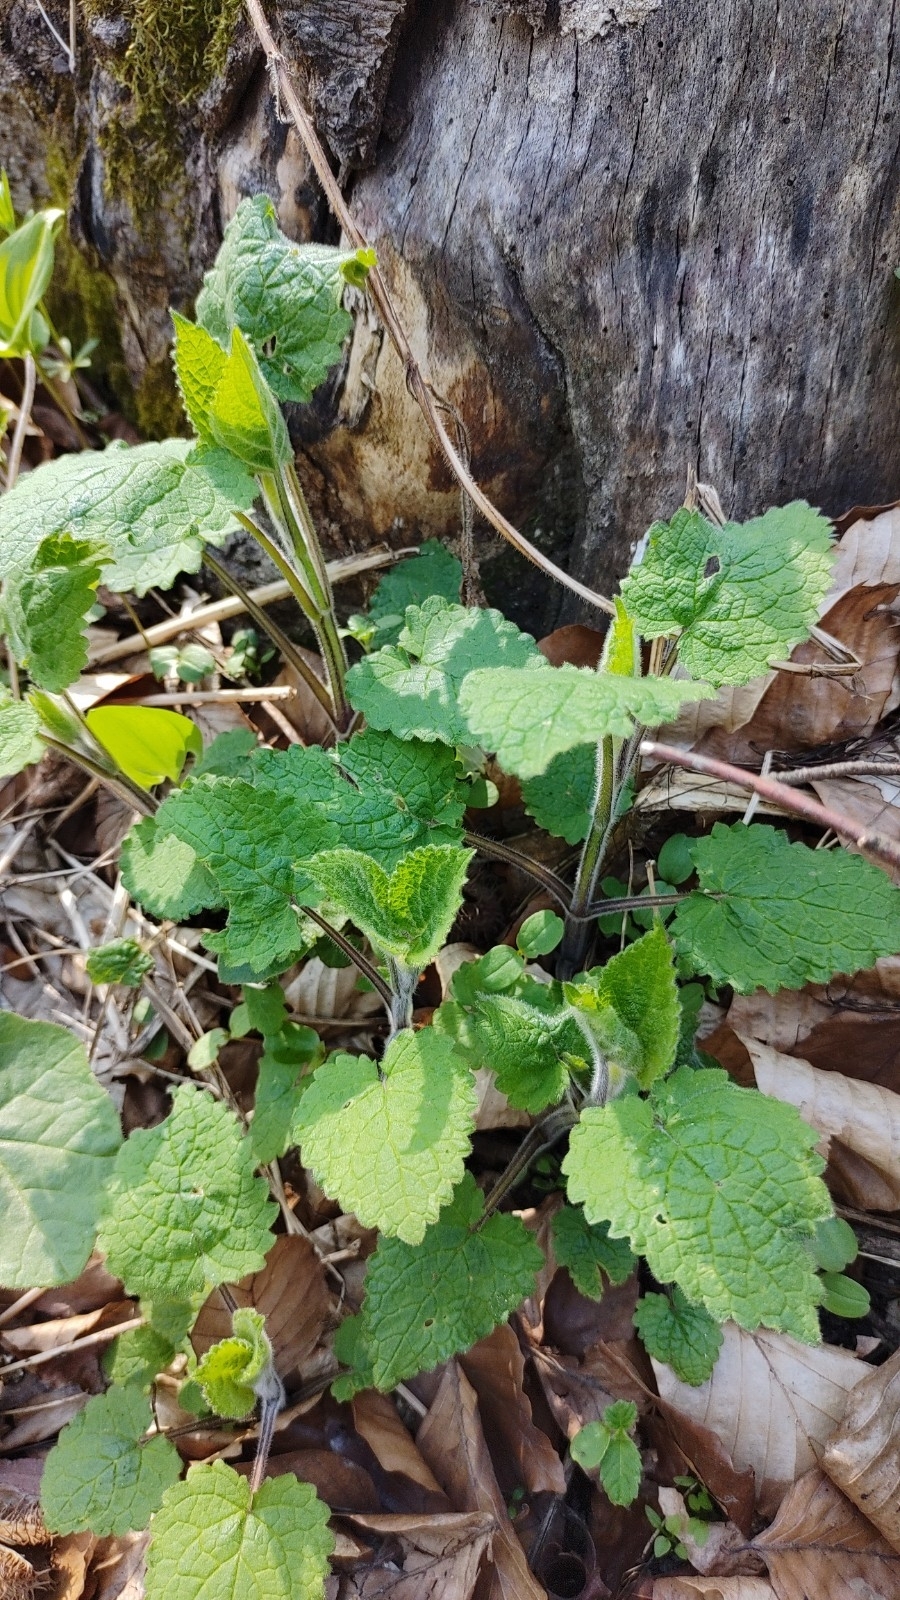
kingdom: Plantae
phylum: Tracheophyta
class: Magnoliopsida
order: Lamiales
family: Lamiaceae
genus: Stachys
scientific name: Stachys sylvatica
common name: Hedge woundwort
